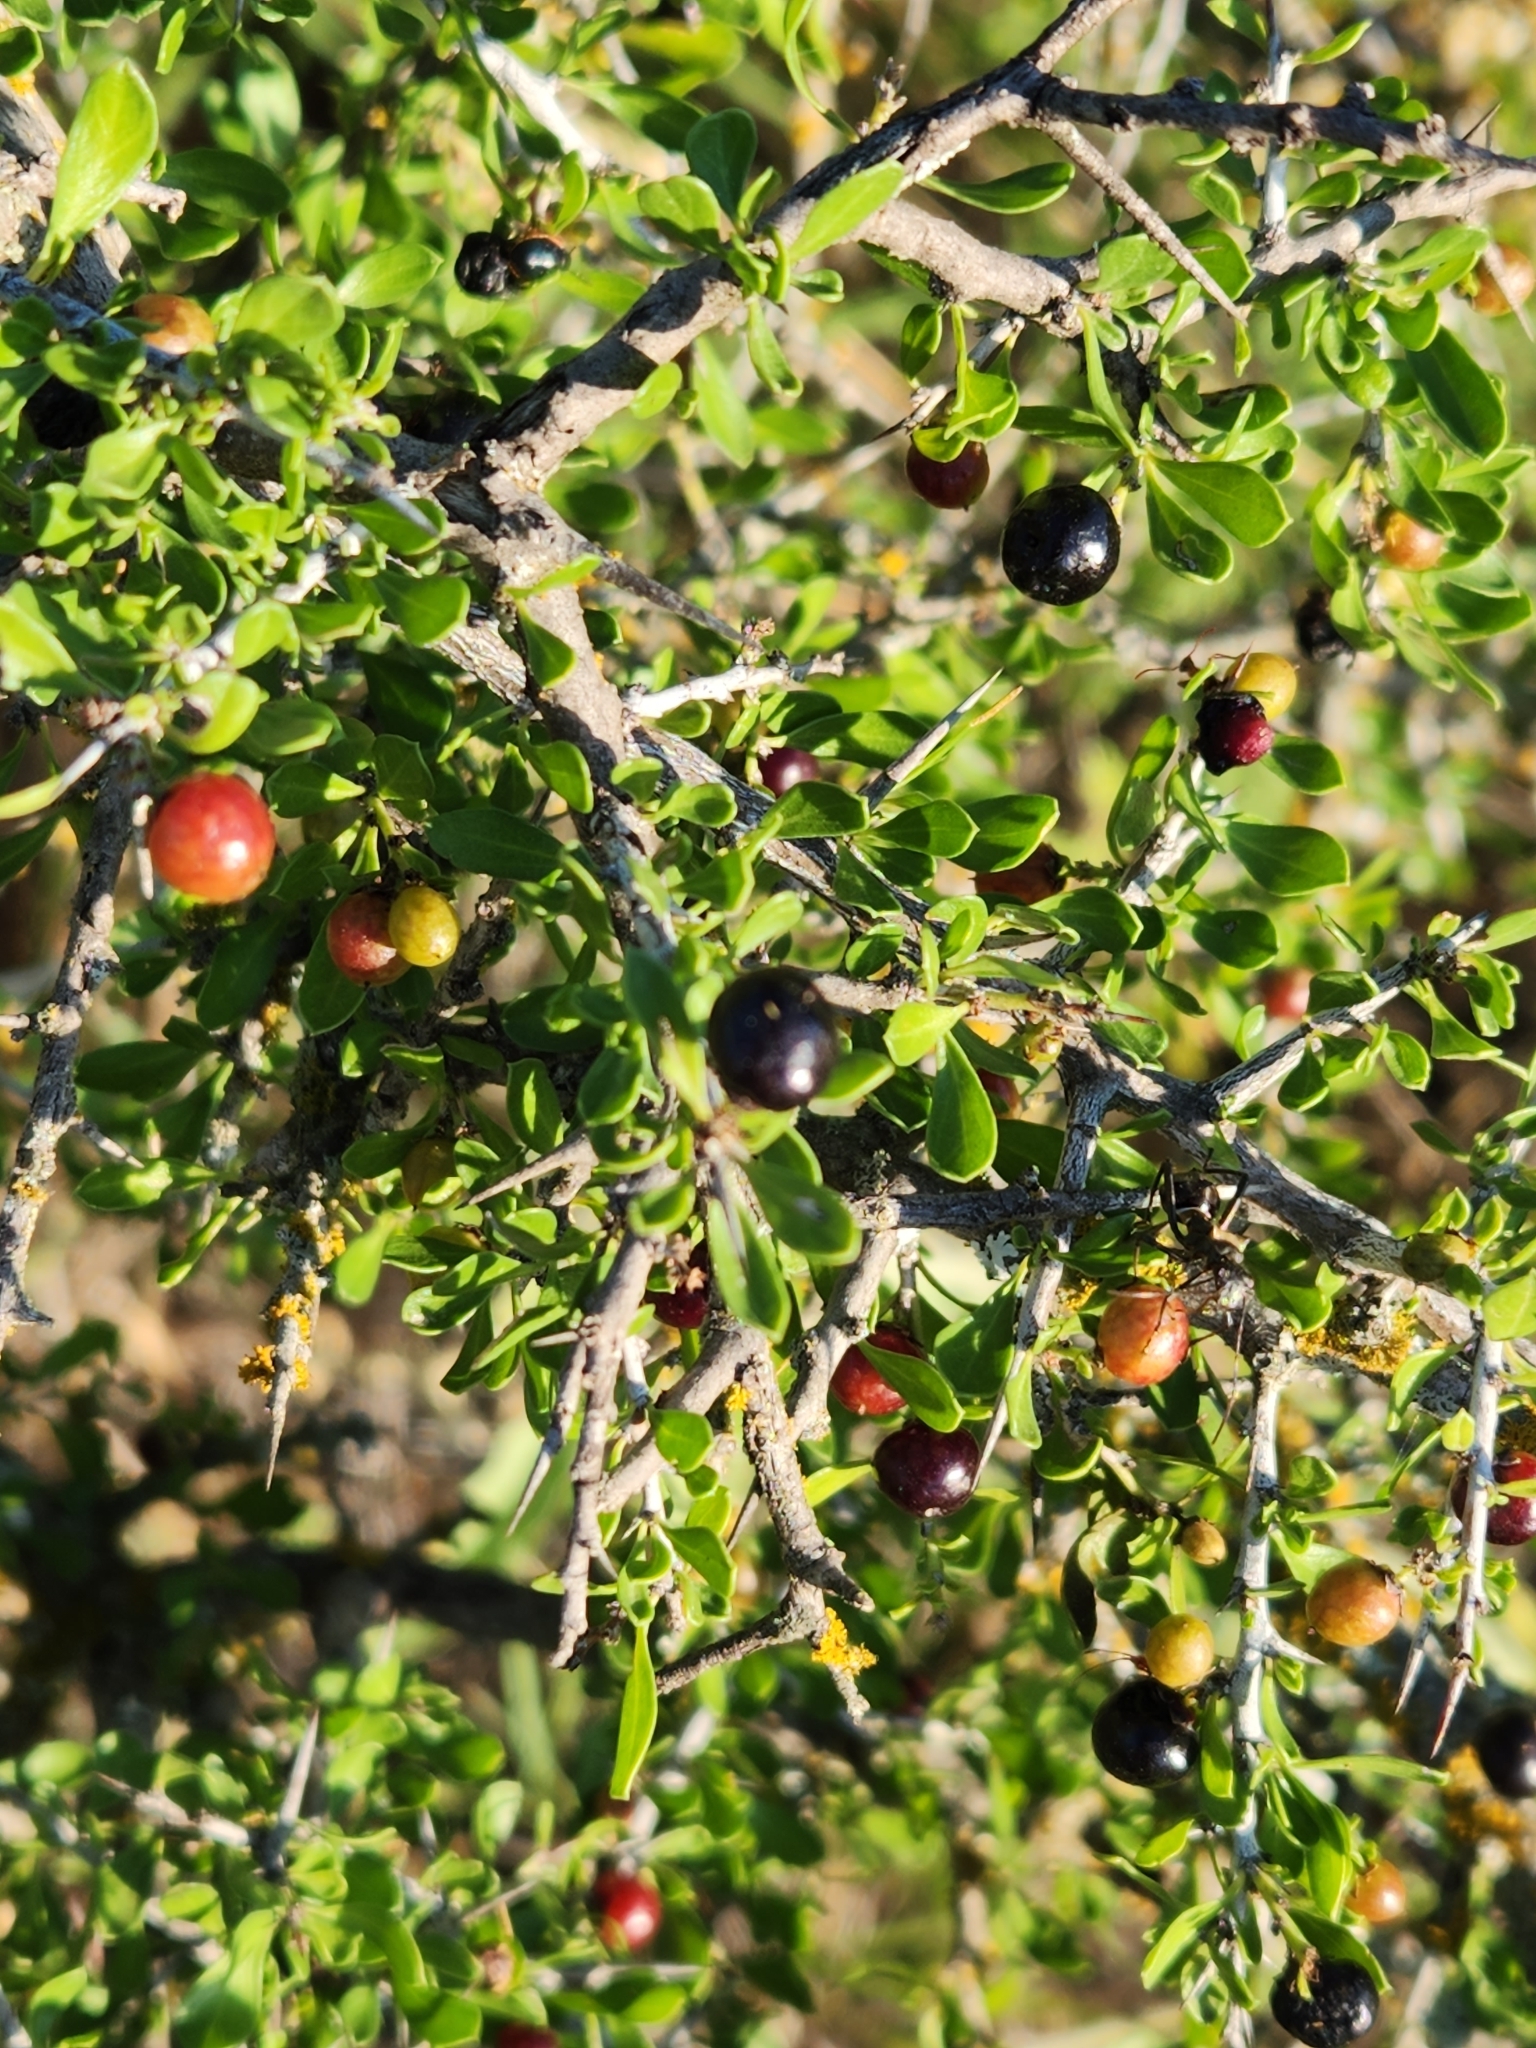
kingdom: Plantae
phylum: Tracheophyta
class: Magnoliopsida
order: Rosales
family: Rhamnaceae
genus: Condalia
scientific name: Condalia viridis
